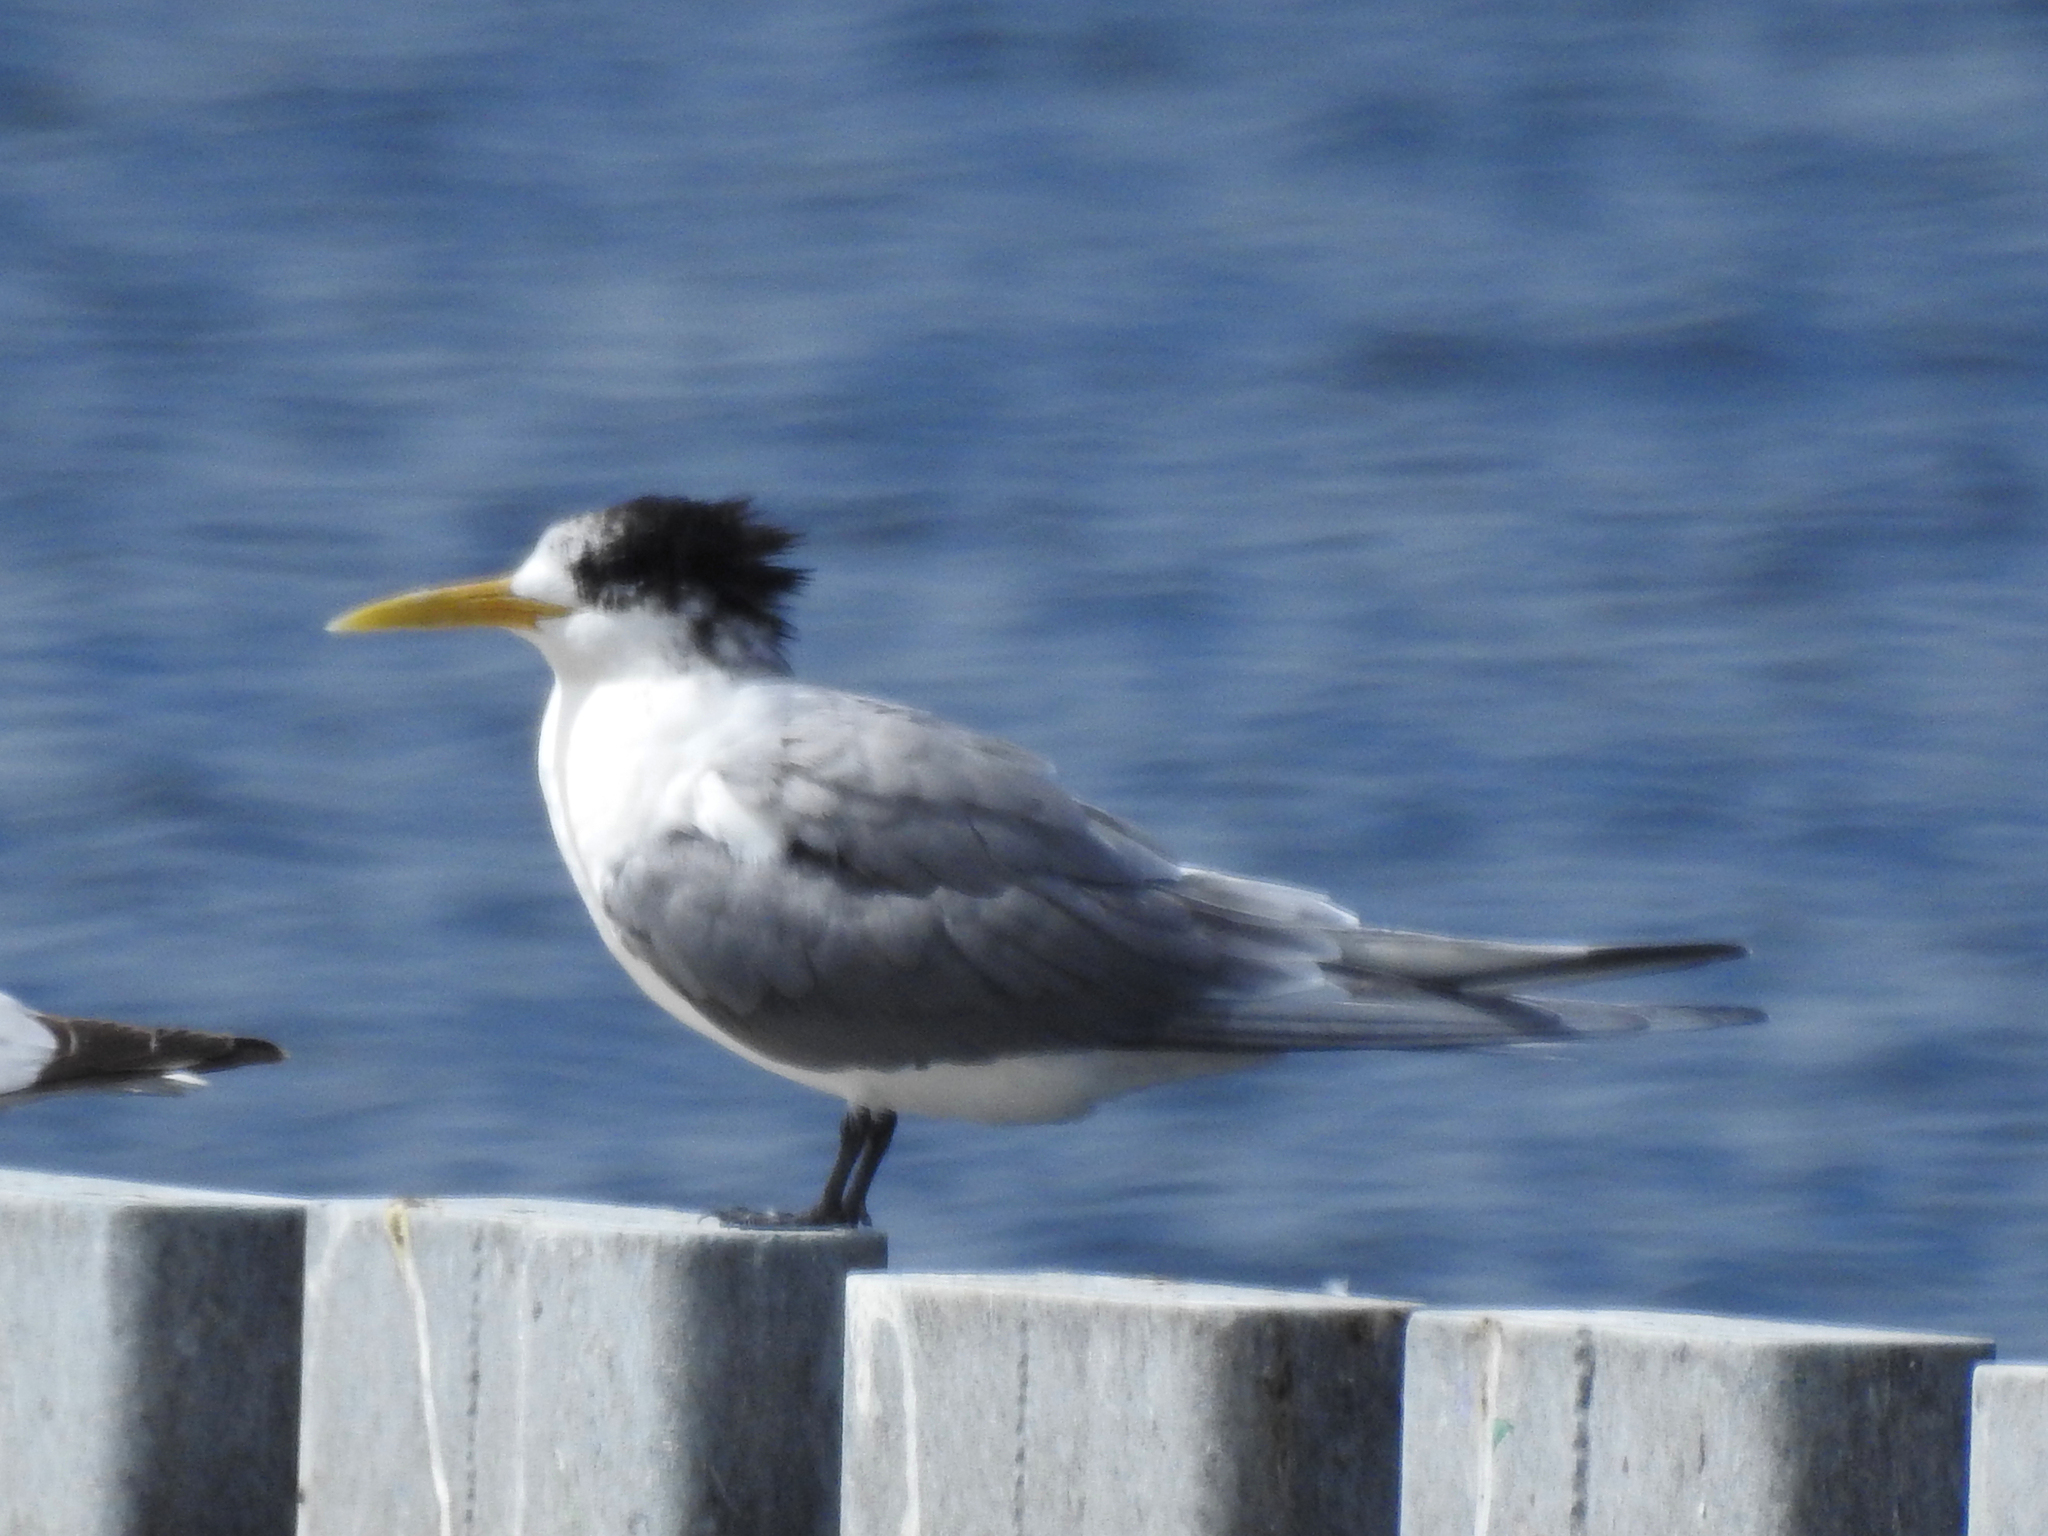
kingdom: Animalia
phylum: Chordata
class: Aves
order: Charadriiformes
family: Laridae
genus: Thalasseus
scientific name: Thalasseus bergii
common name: Greater crested tern
